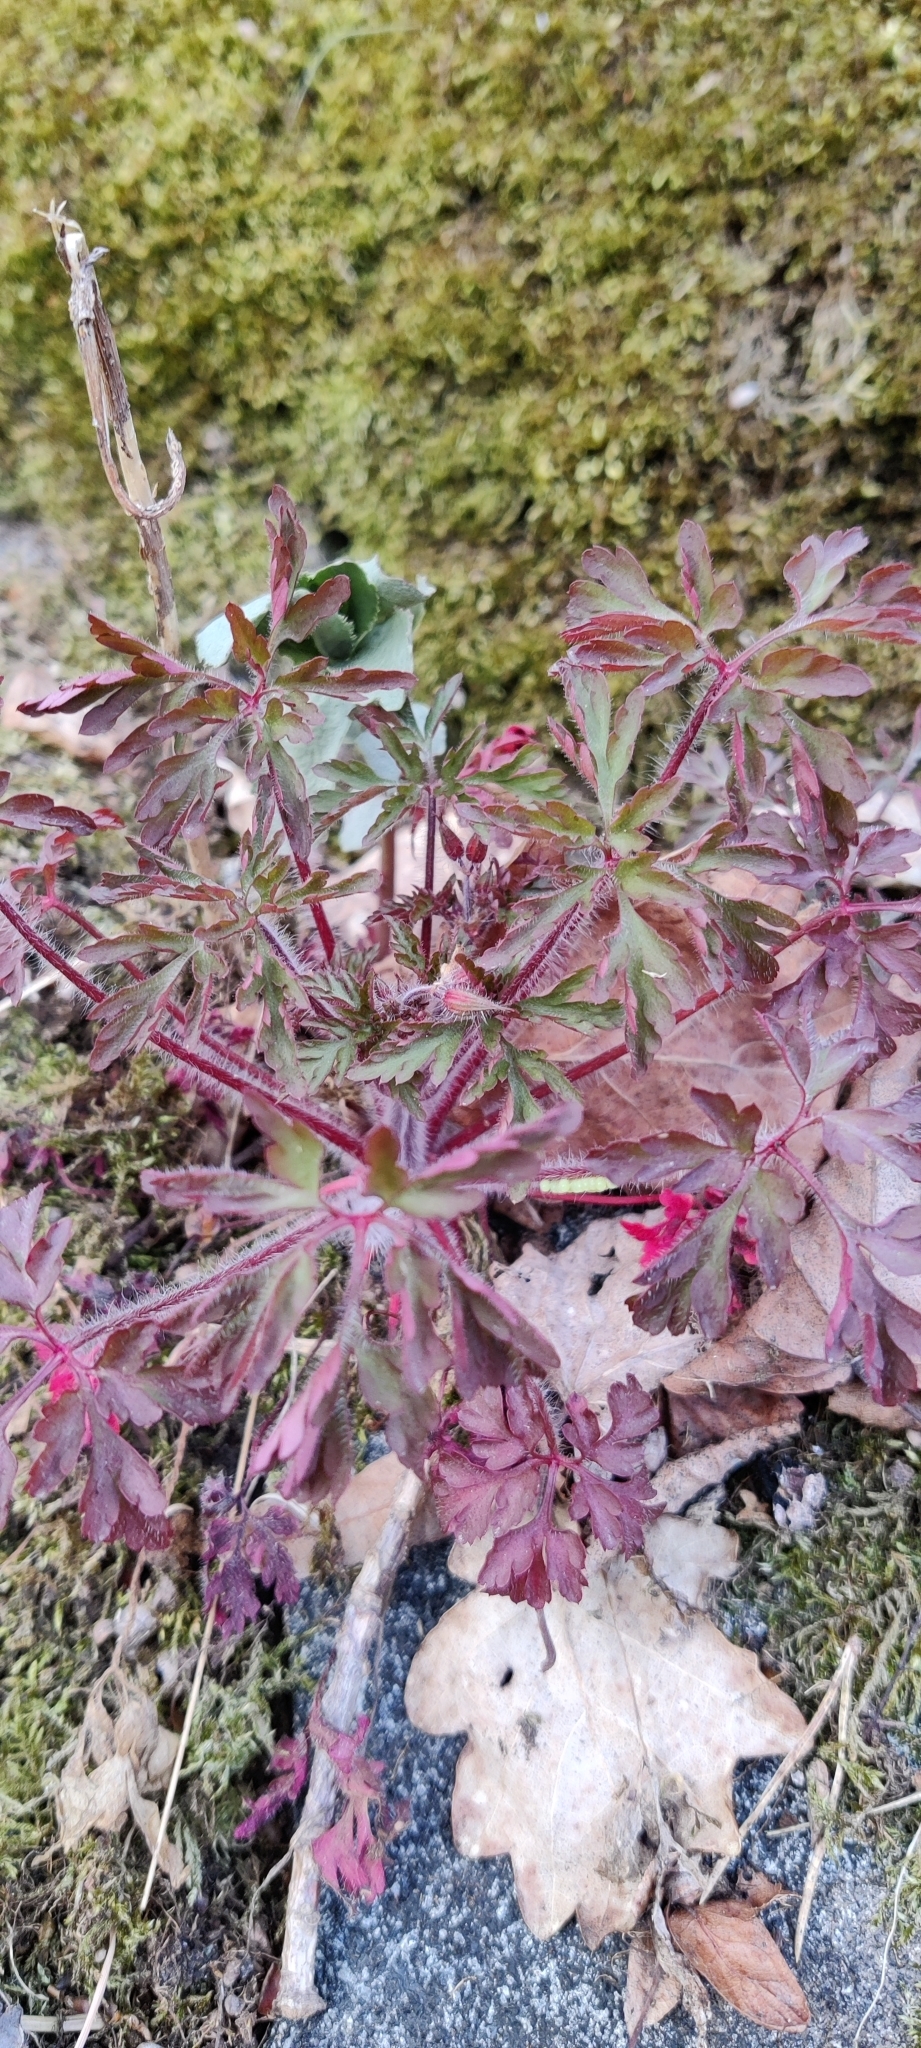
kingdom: Plantae
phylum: Tracheophyta
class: Magnoliopsida
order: Geraniales
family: Geraniaceae
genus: Geranium
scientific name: Geranium robertianum
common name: Herb-robert
